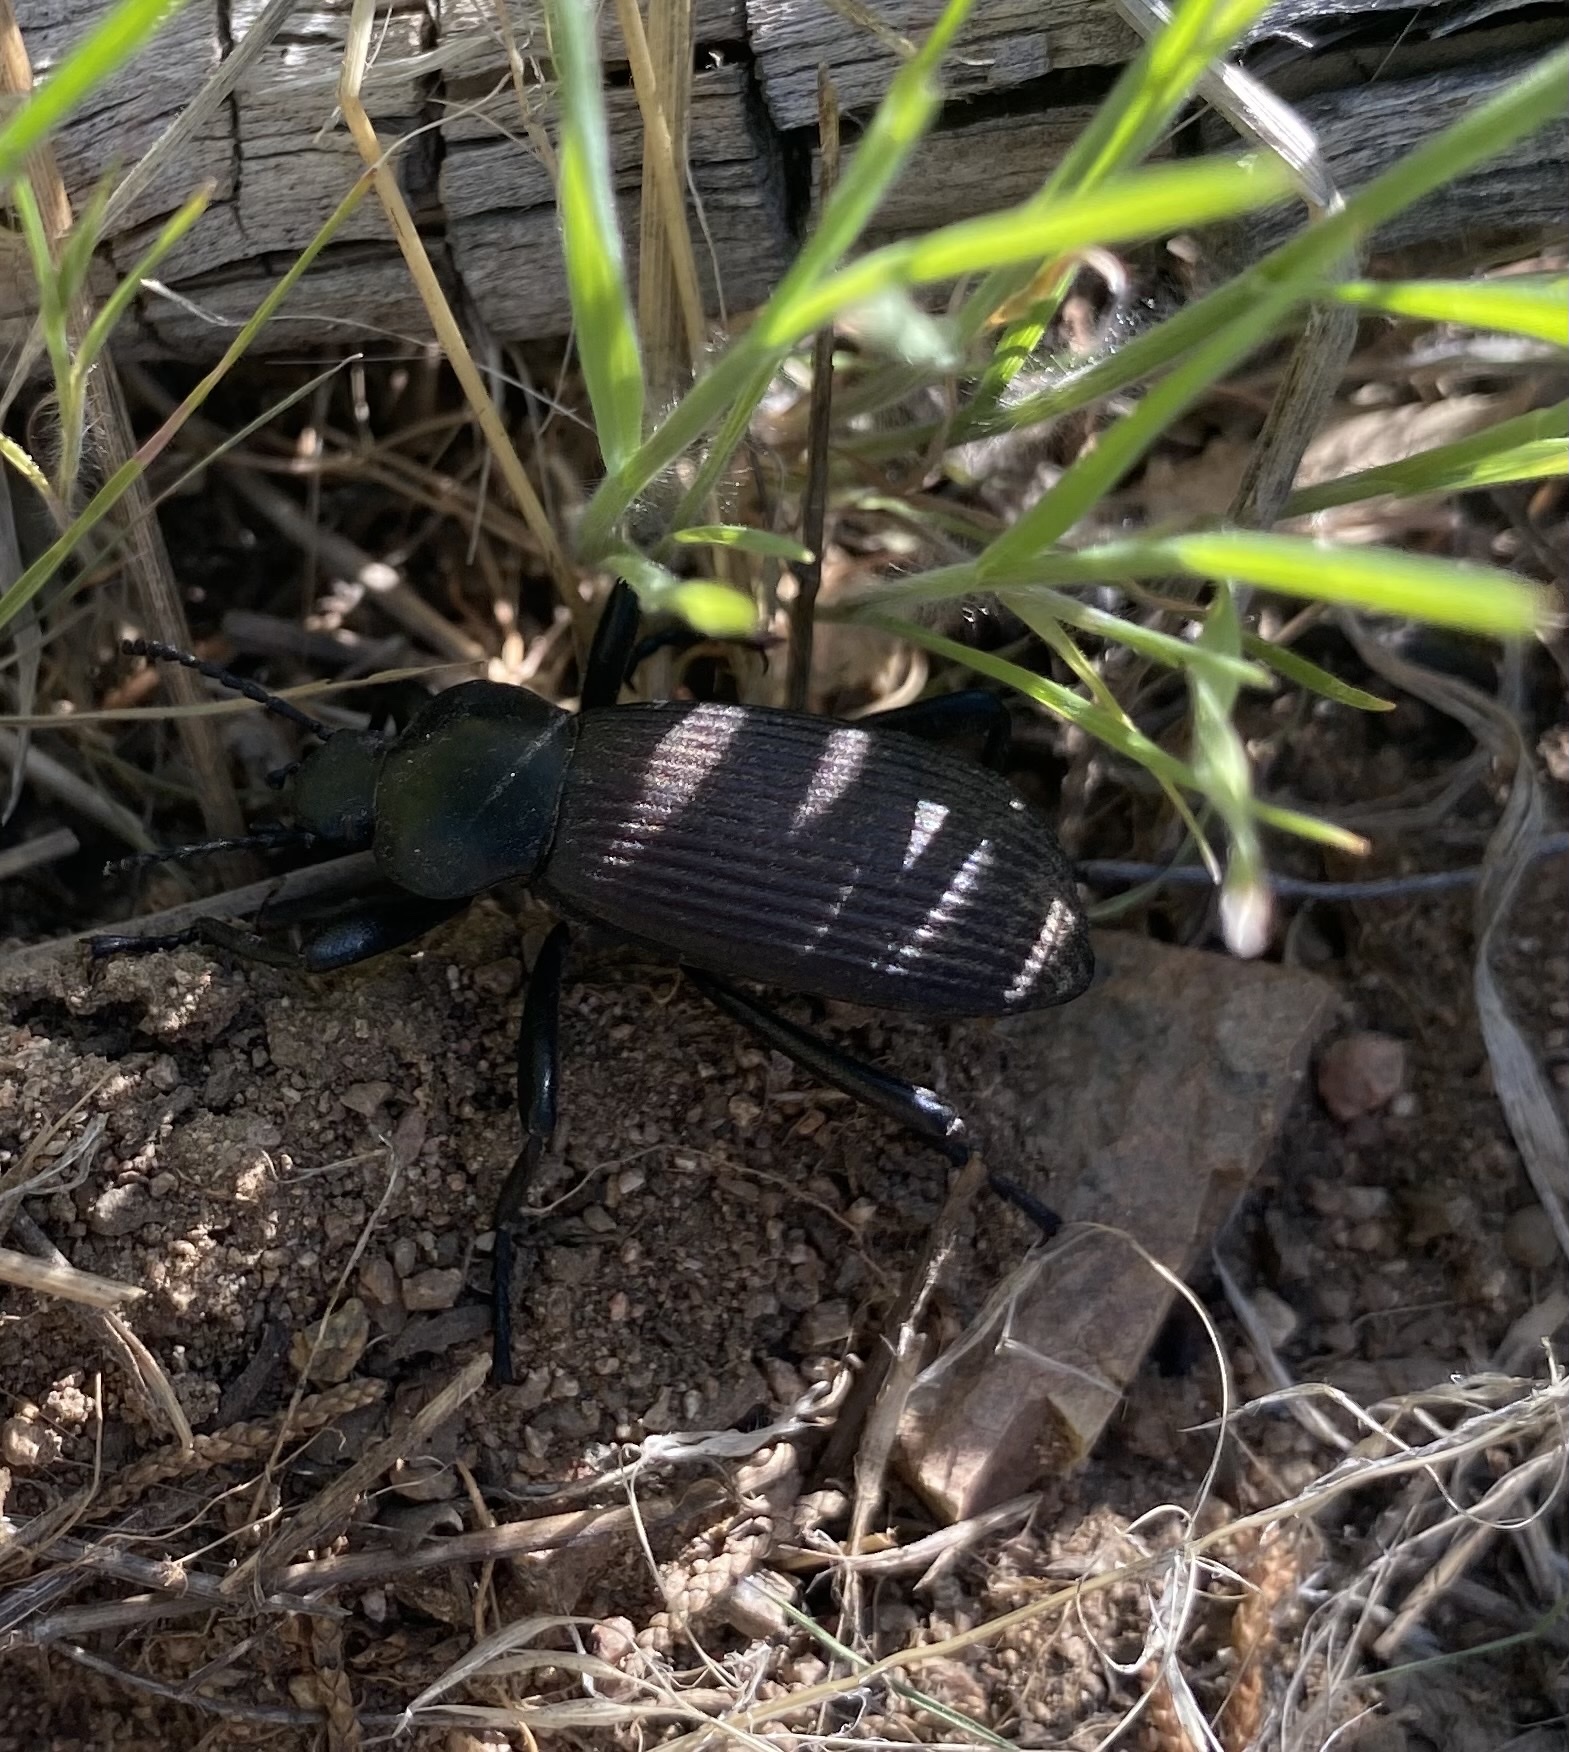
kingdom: Animalia
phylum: Arthropoda
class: Insecta
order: Coleoptera
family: Tenebrionidae
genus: Eleodes
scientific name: Eleodes obscura
